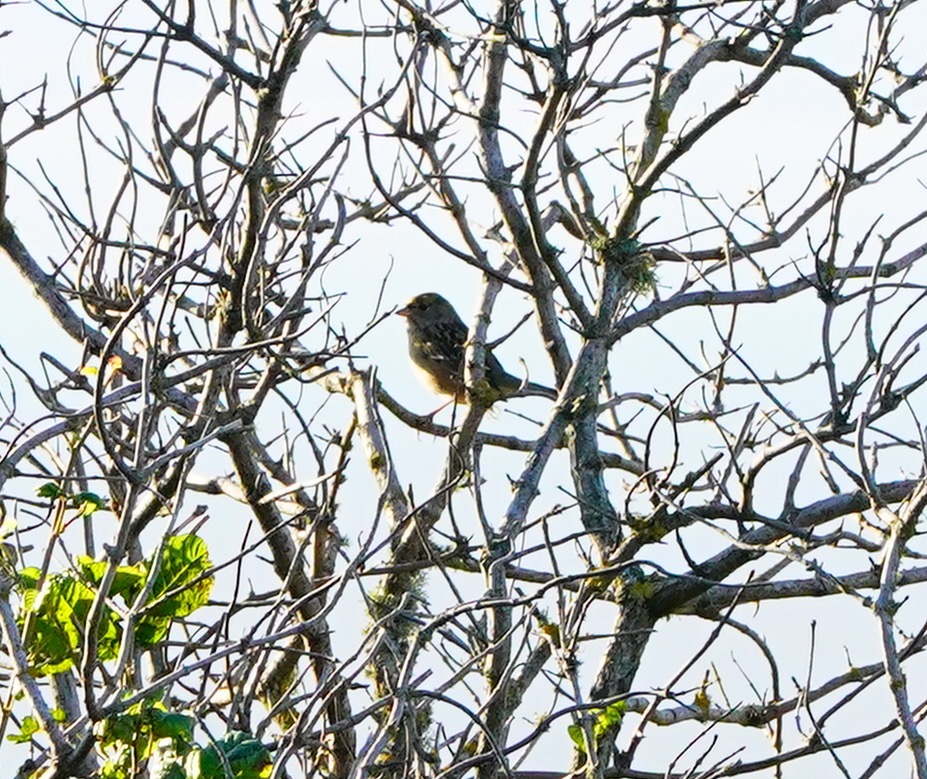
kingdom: Animalia
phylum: Chordata
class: Aves
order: Passeriformes
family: Passerellidae
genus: Zonotrichia
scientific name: Zonotrichia atricapilla
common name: Golden-crowned sparrow
